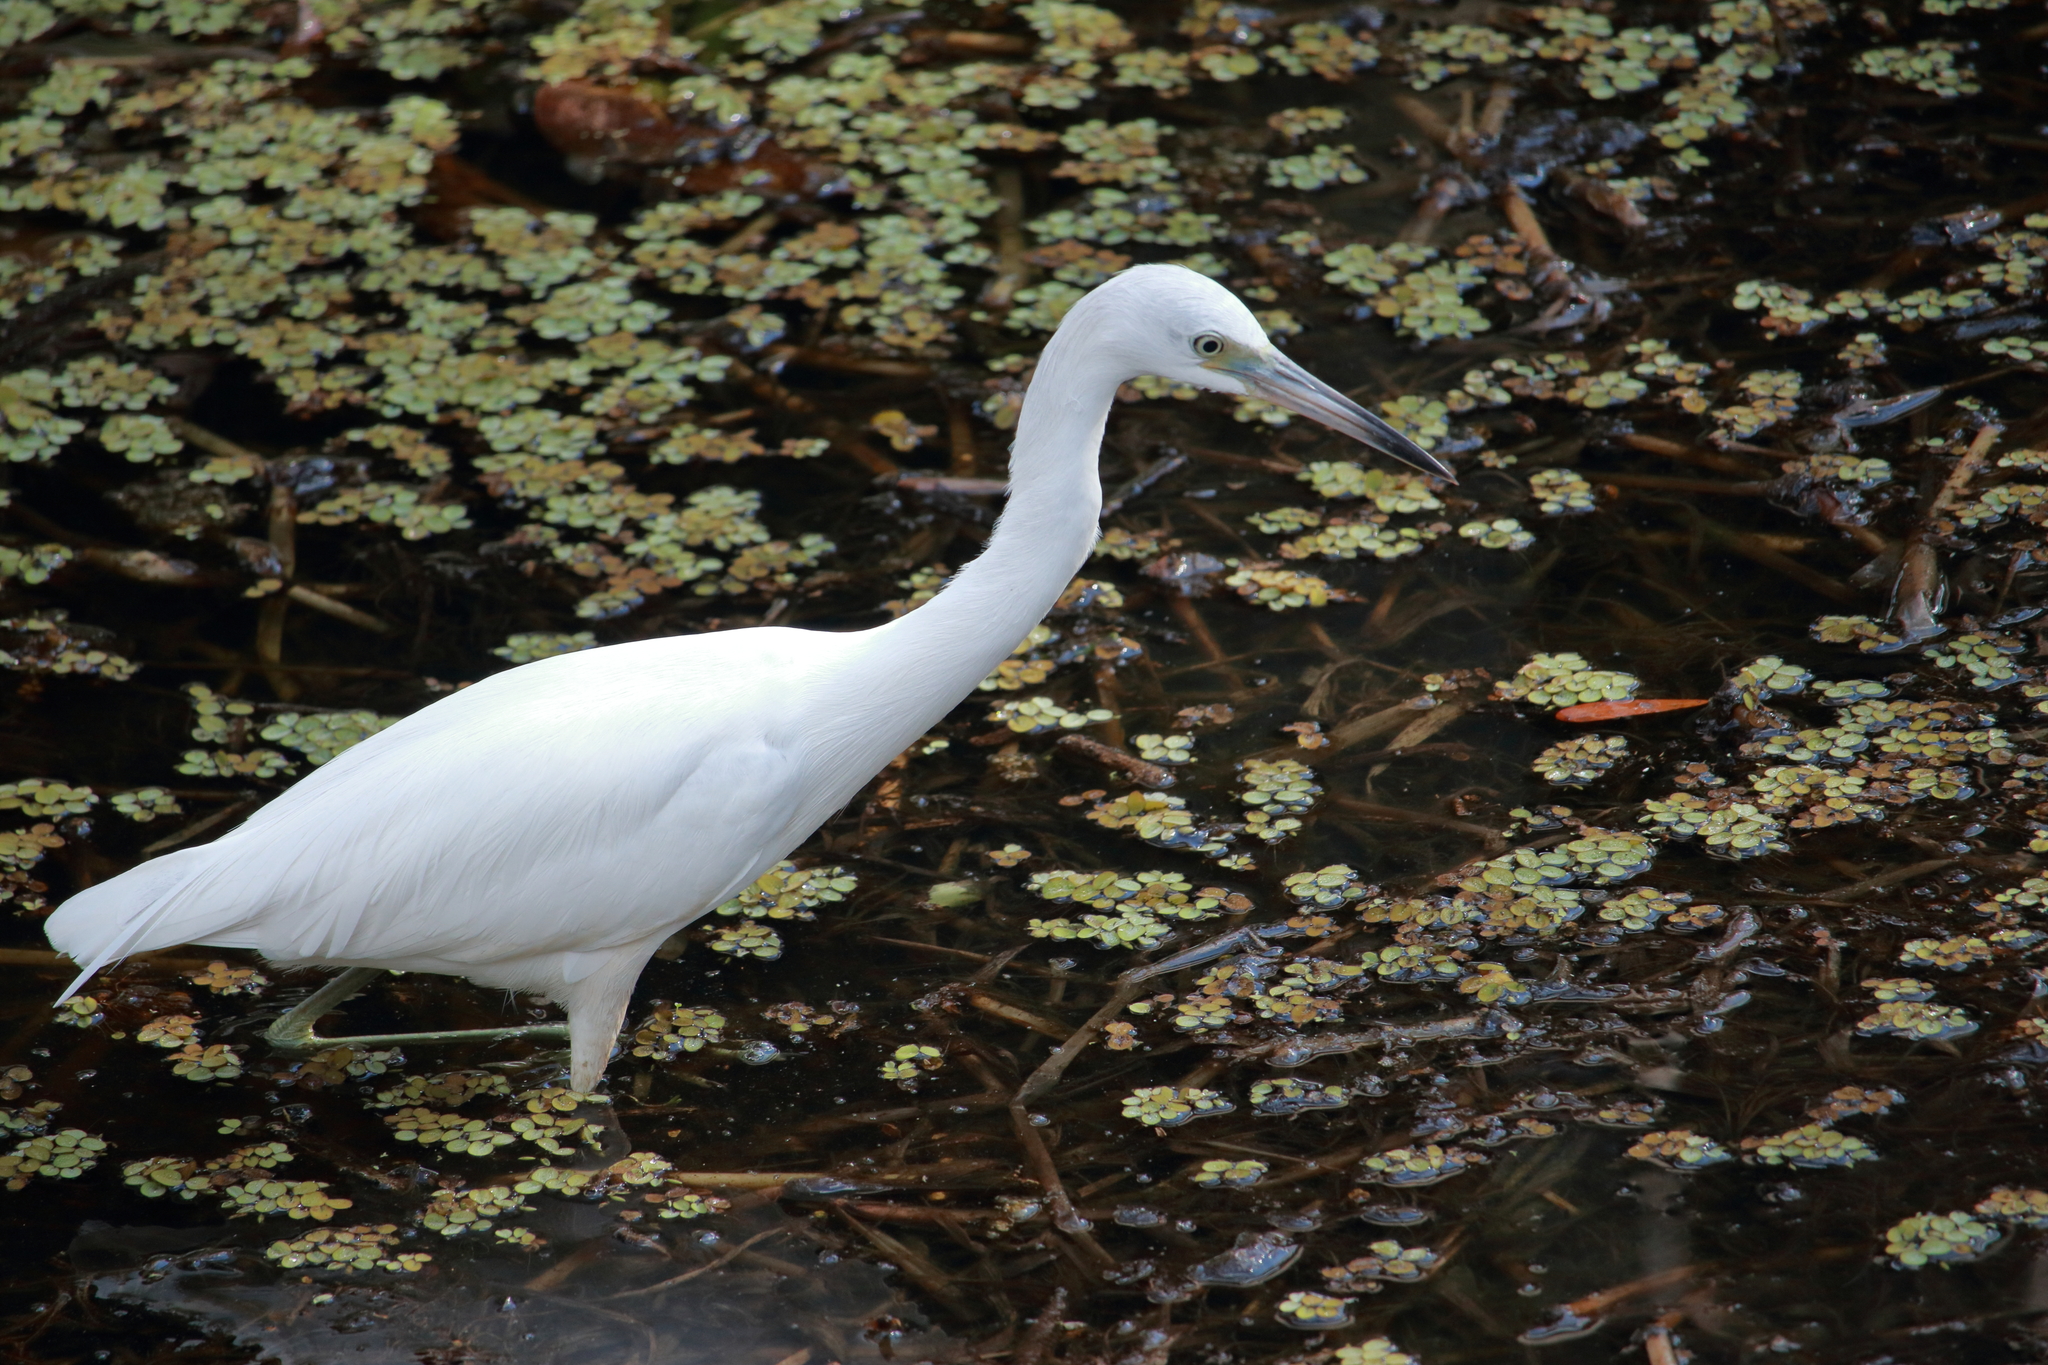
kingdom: Animalia
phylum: Chordata
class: Aves
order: Pelecaniformes
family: Ardeidae
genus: Egretta
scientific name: Egretta caerulea
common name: Little blue heron
